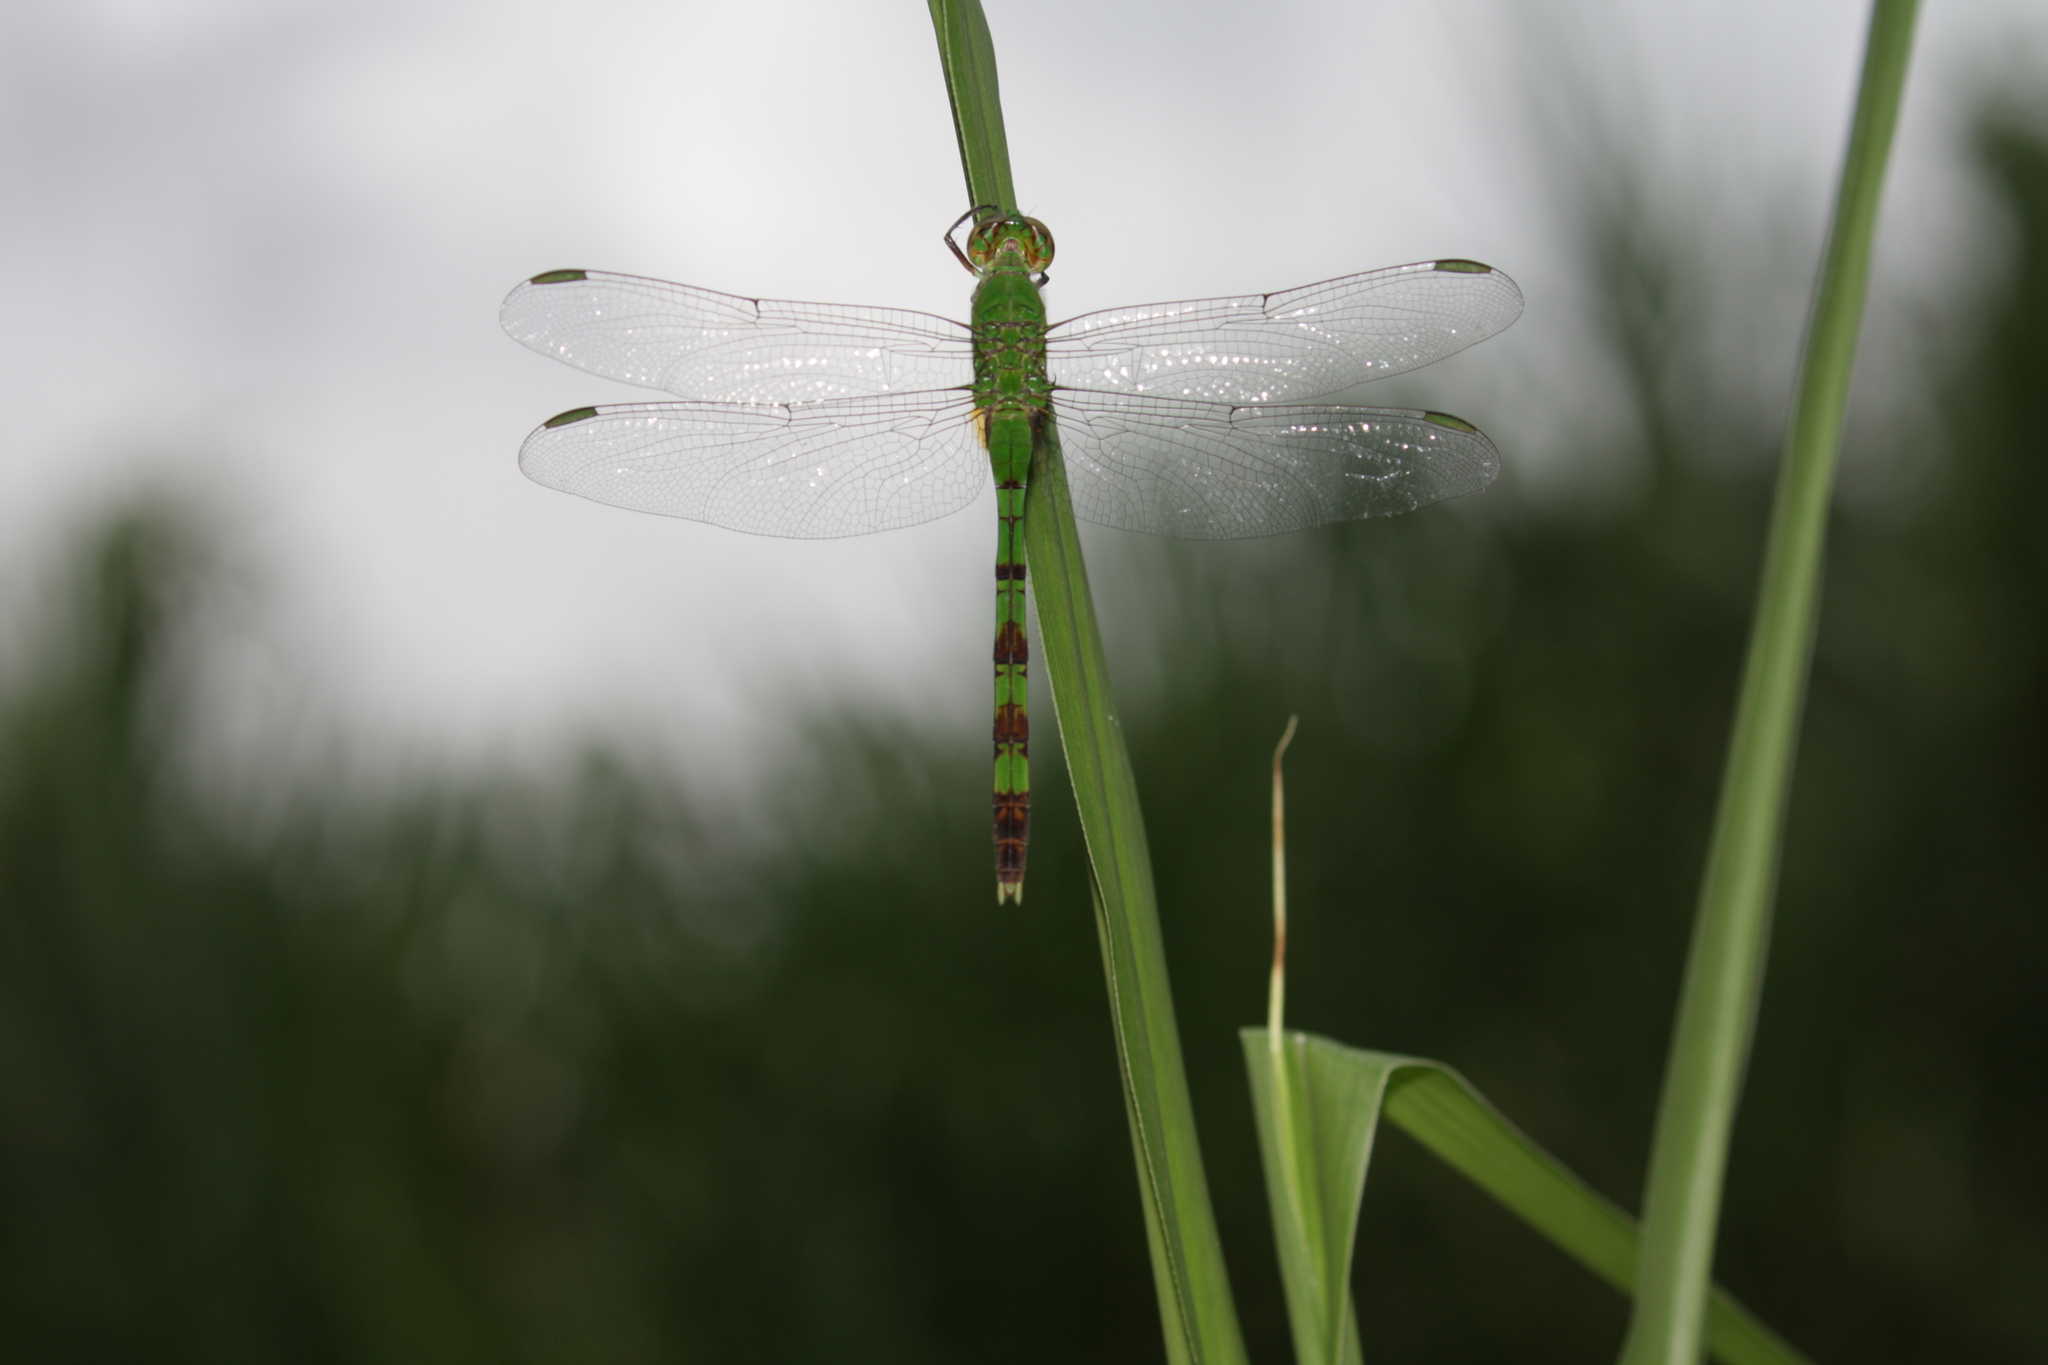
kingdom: Animalia
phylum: Arthropoda
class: Insecta
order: Odonata
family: Libellulidae
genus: Erythemis
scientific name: Erythemis vesiculosa
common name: Great pondhawk
